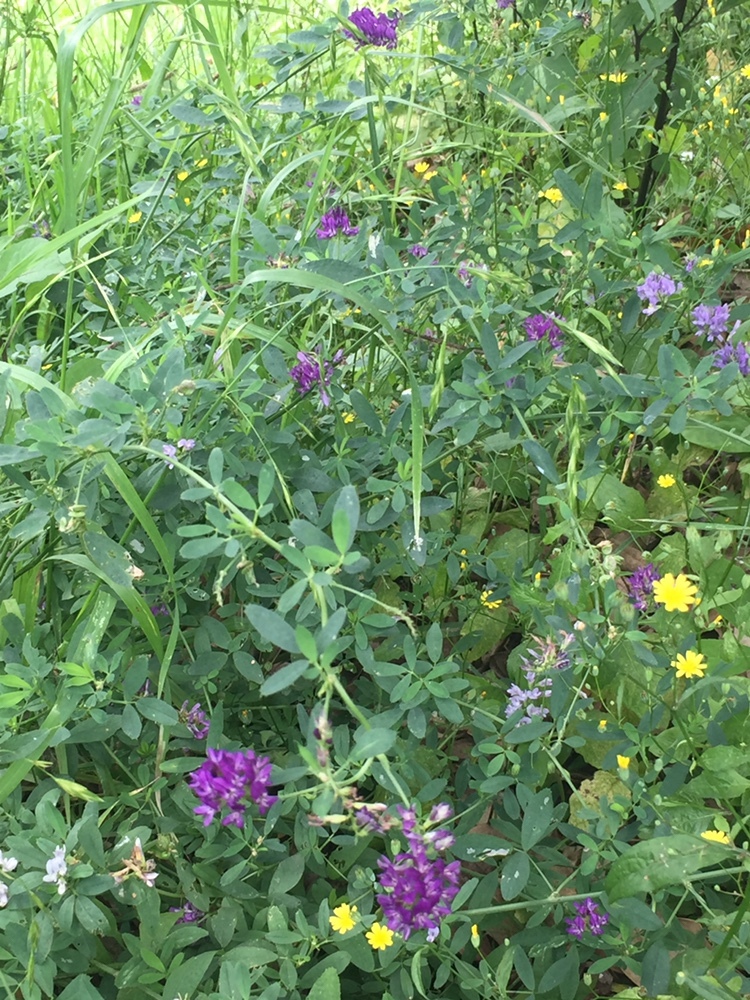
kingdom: Plantae
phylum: Tracheophyta
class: Magnoliopsida
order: Fabales
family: Fabaceae
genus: Medicago
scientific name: Medicago sativa
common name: Alfalfa
